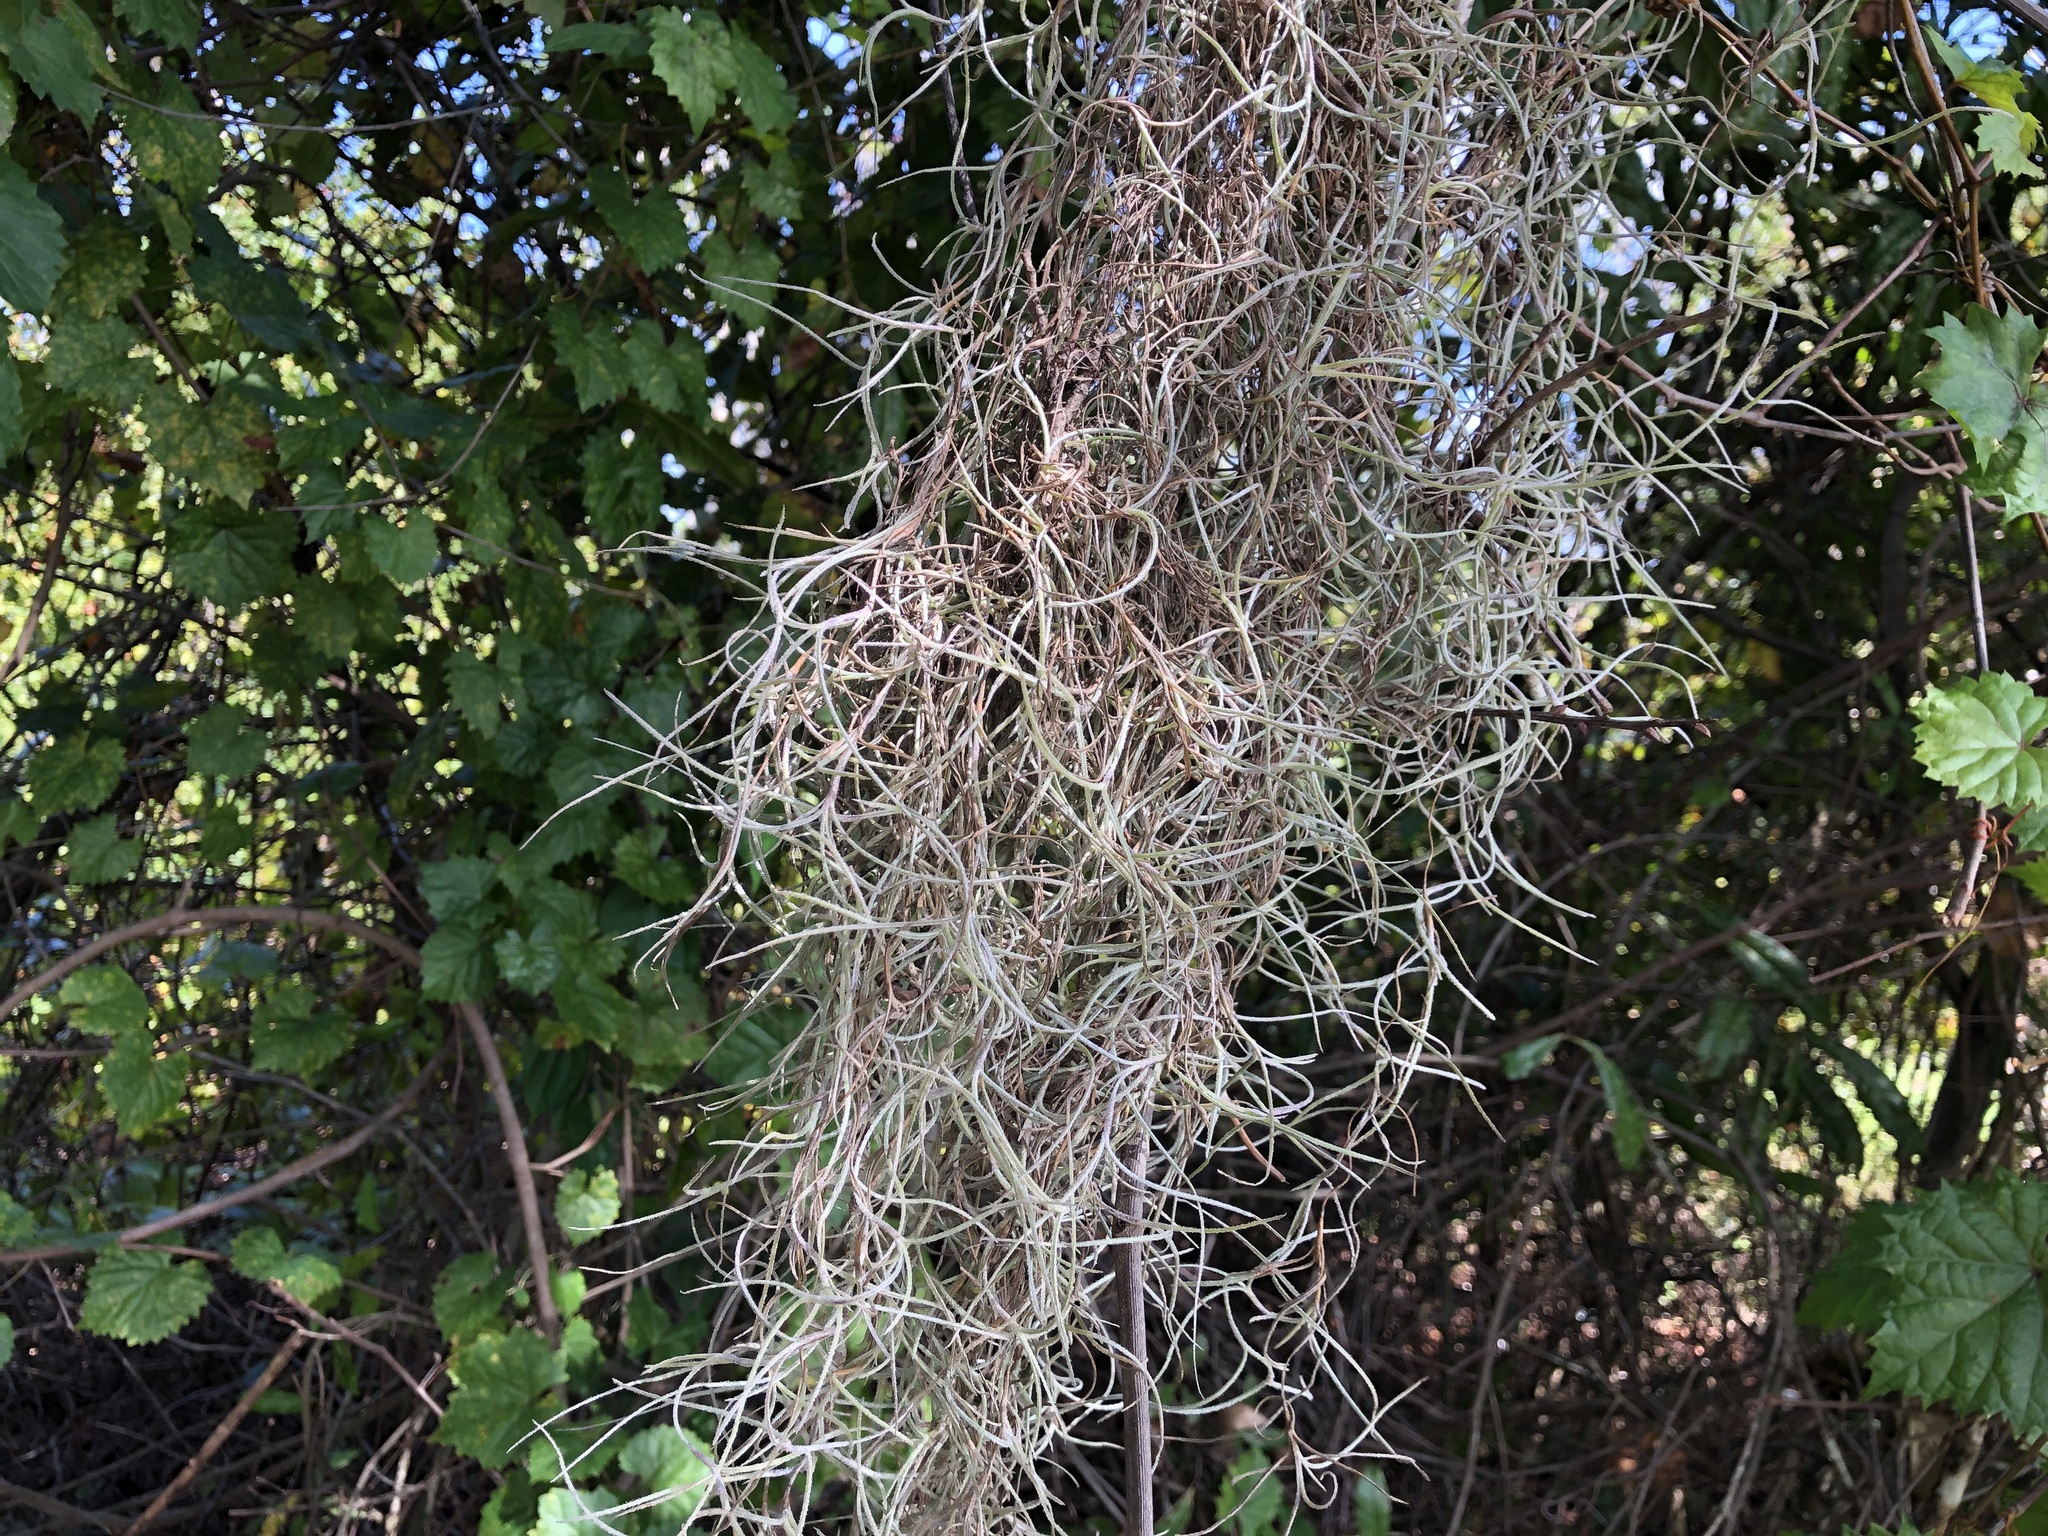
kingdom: Plantae
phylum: Tracheophyta
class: Liliopsida
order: Poales
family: Bromeliaceae
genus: Tillandsia
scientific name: Tillandsia usneoides
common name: Spanish moss
